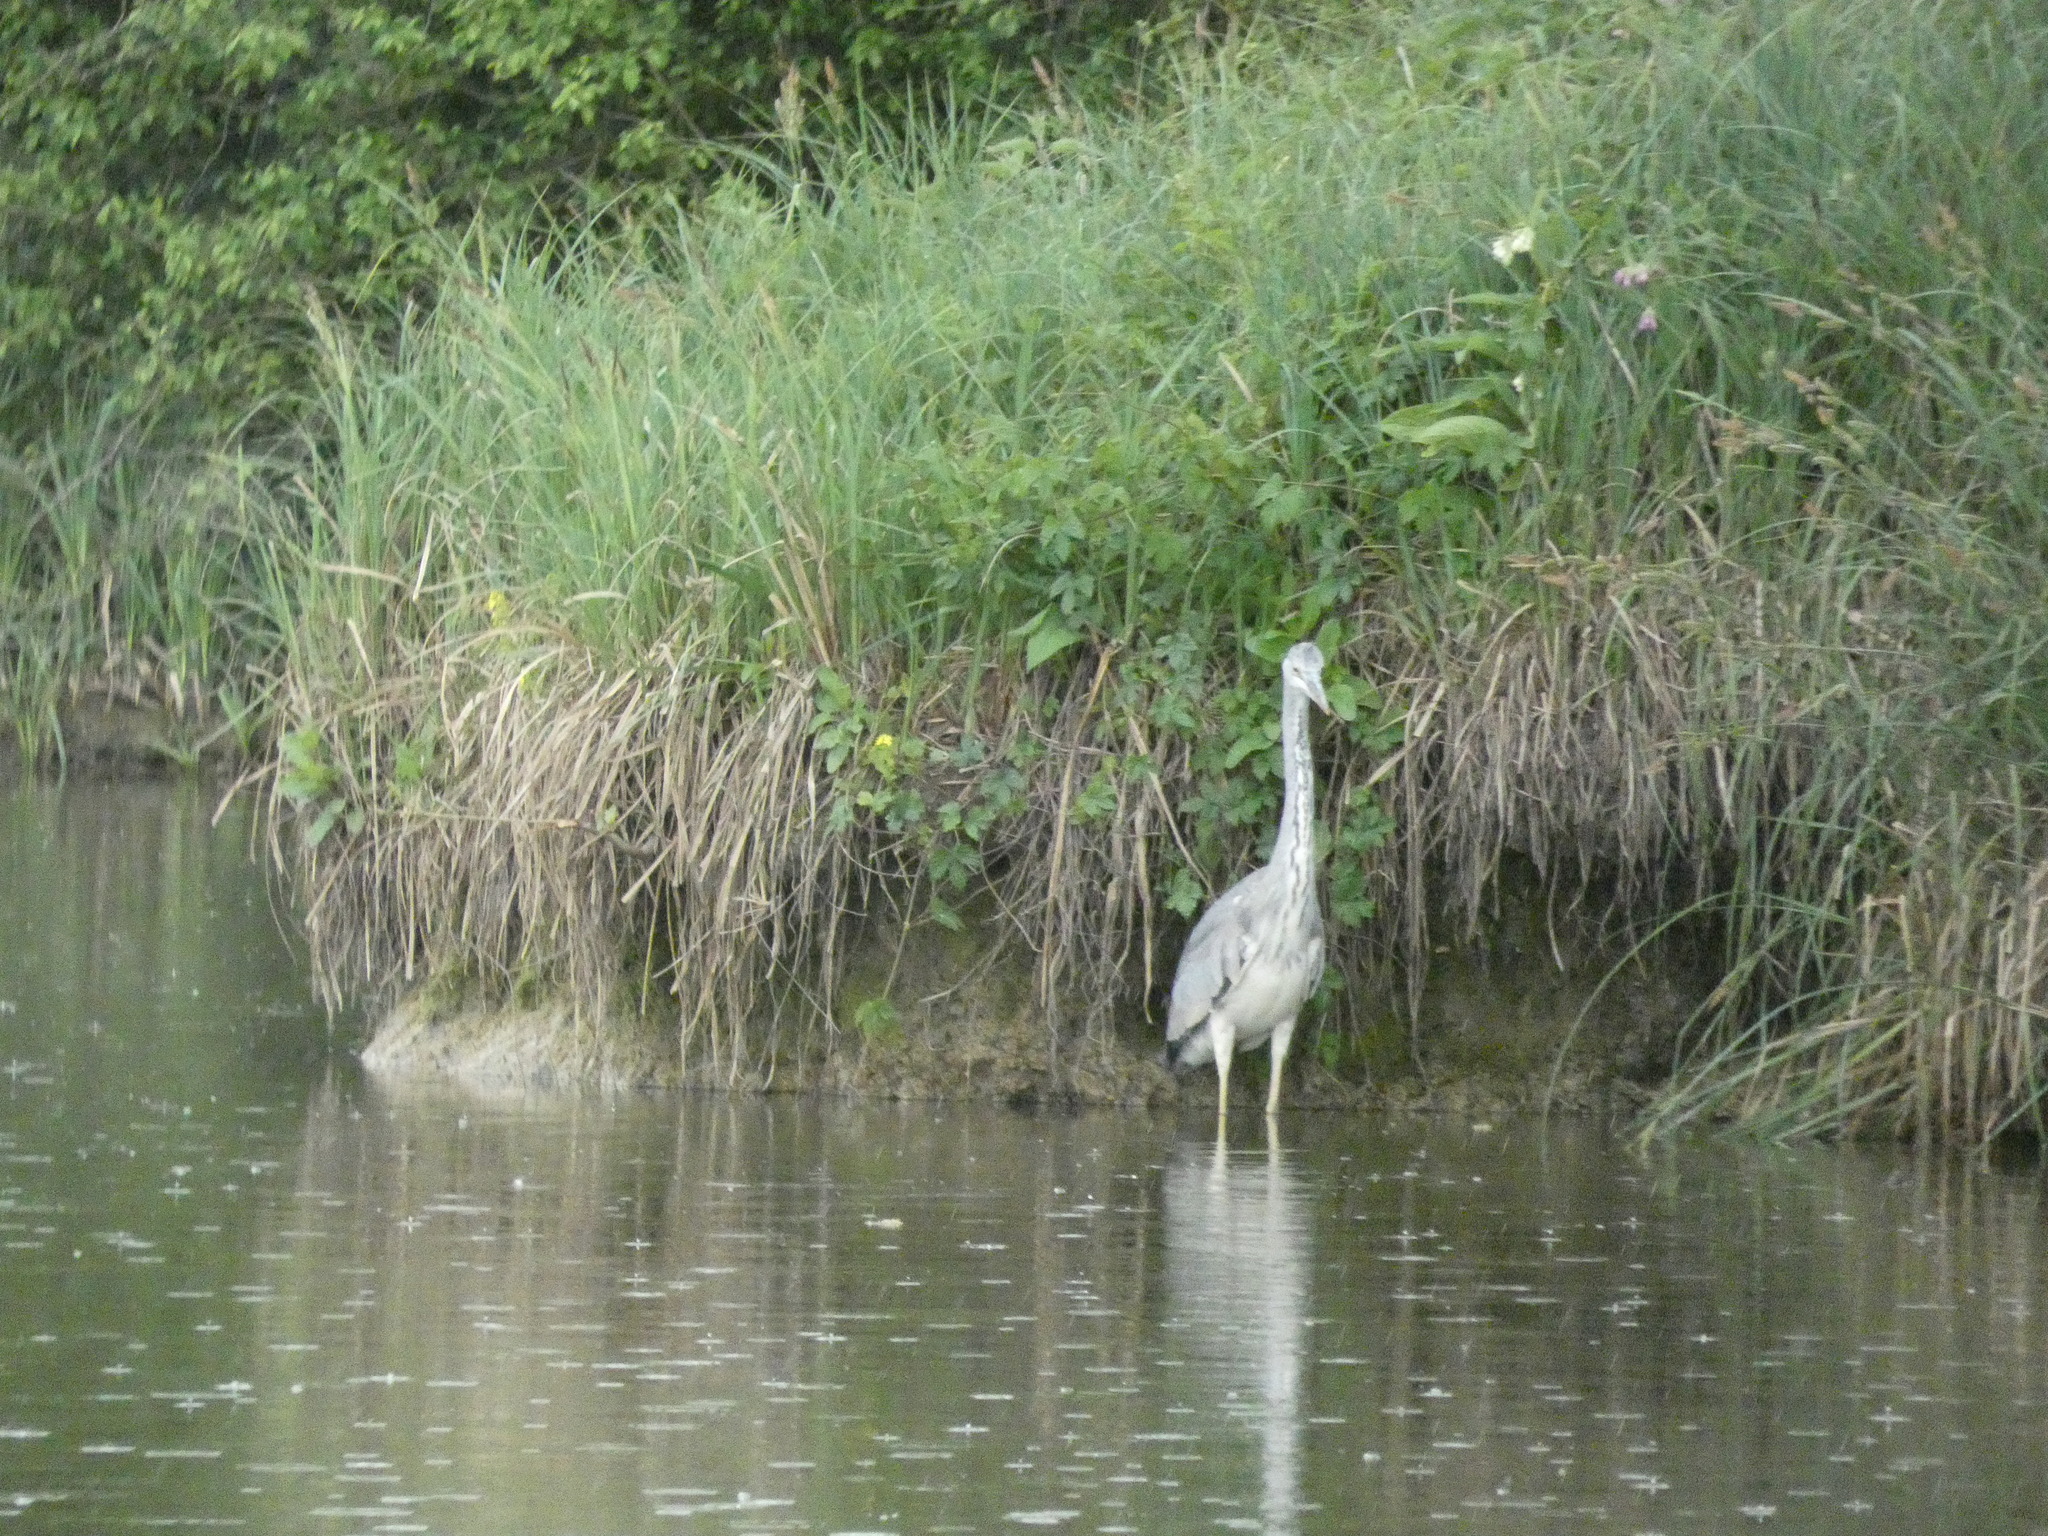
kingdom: Animalia
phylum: Chordata
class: Aves
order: Pelecaniformes
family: Ardeidae
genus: Ardea
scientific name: Ardea cinerea
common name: Grey heron
